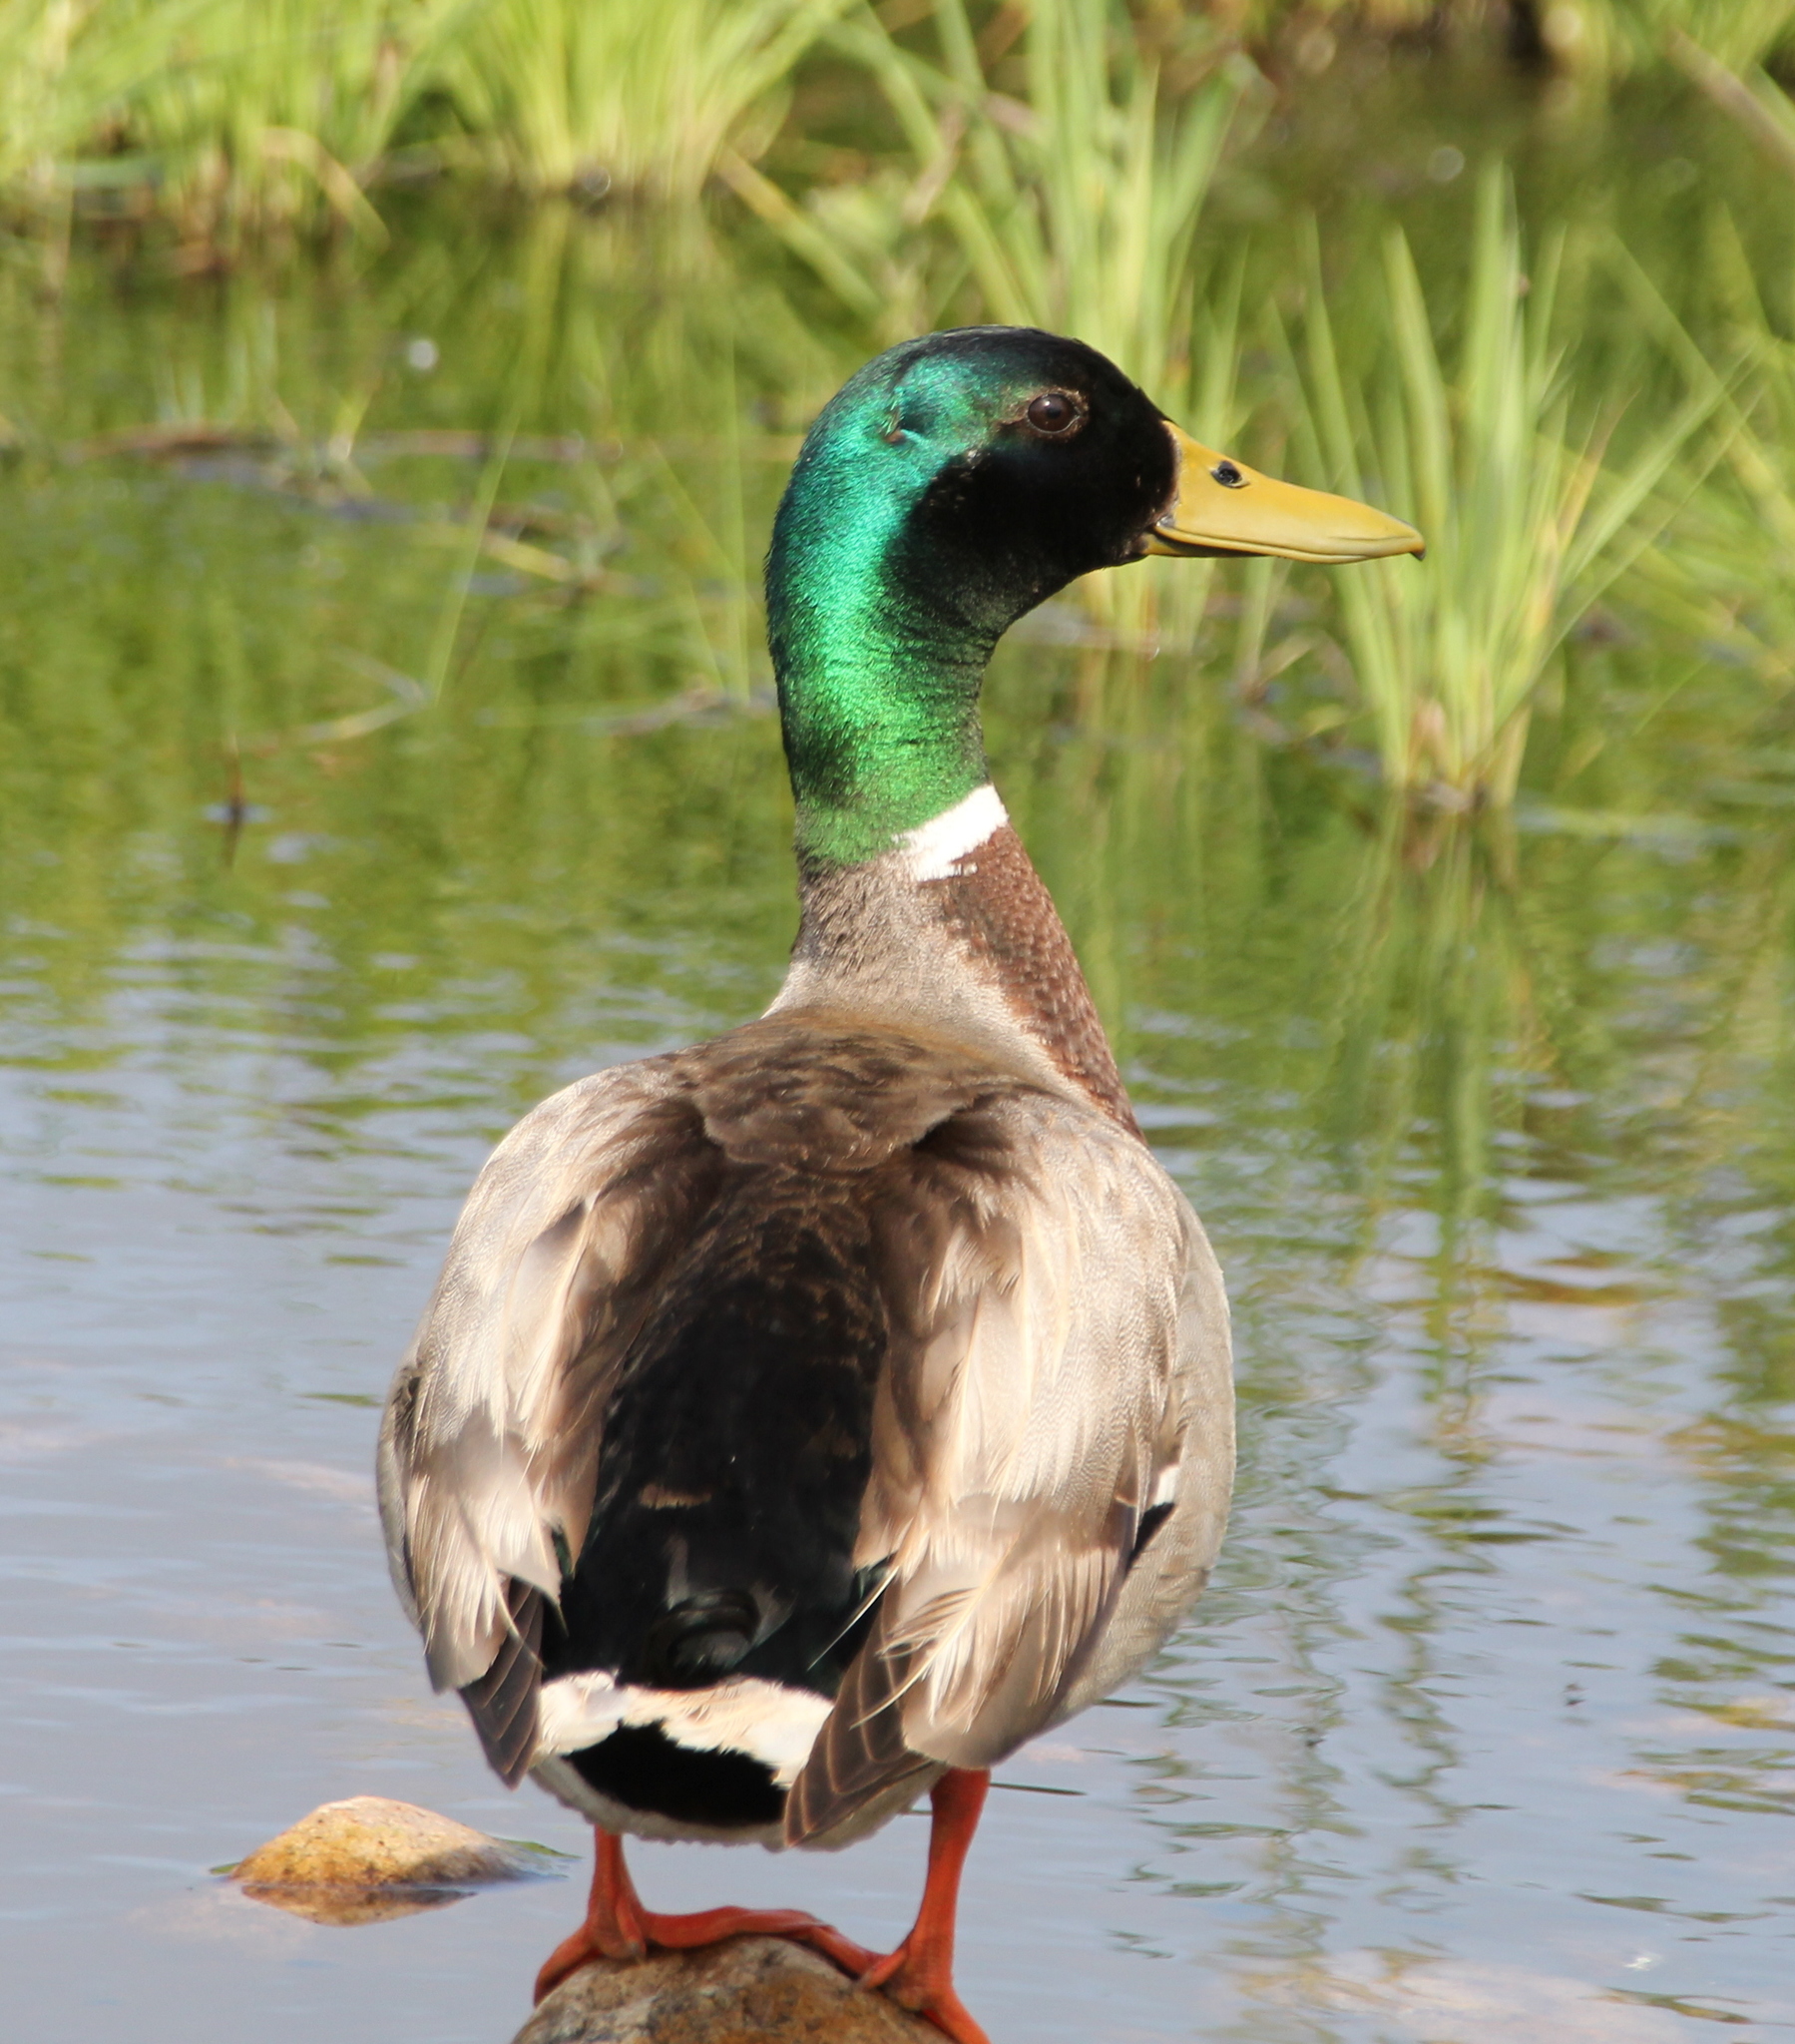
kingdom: Animalia
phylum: Chordata
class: Aves
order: Anseriformes
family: Anatidae
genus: Anas
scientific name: Anas platyrhynchos
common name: Mallard
